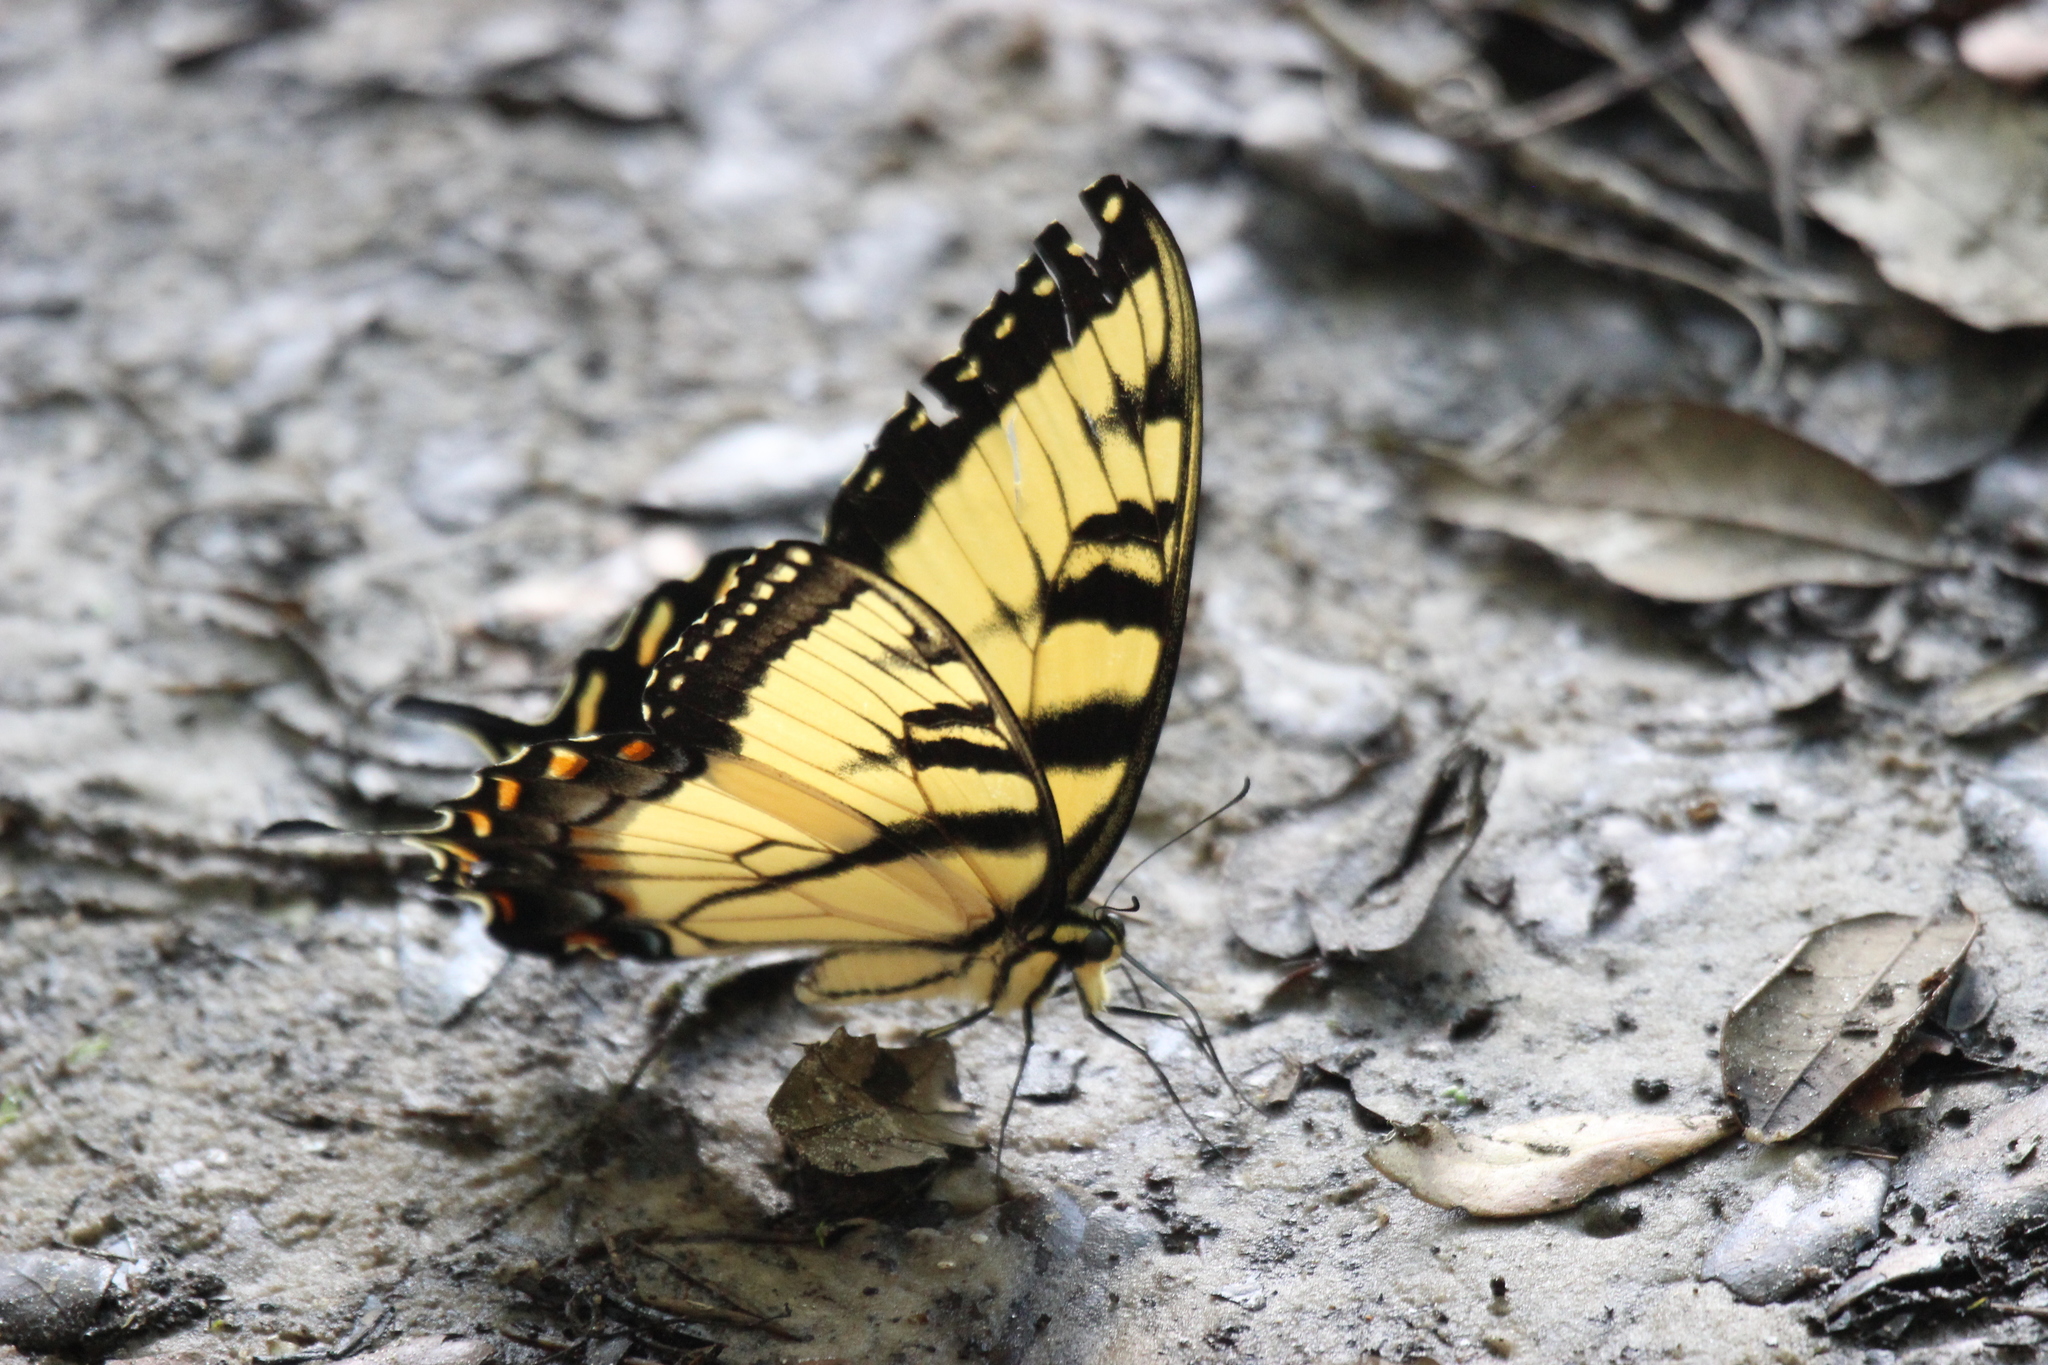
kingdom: Animalia
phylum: Arthropoda
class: Insecta
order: Lepidoptera
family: Papilionidae
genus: Papilio
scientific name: Papilio glaucus
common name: Tiger swallowtail
